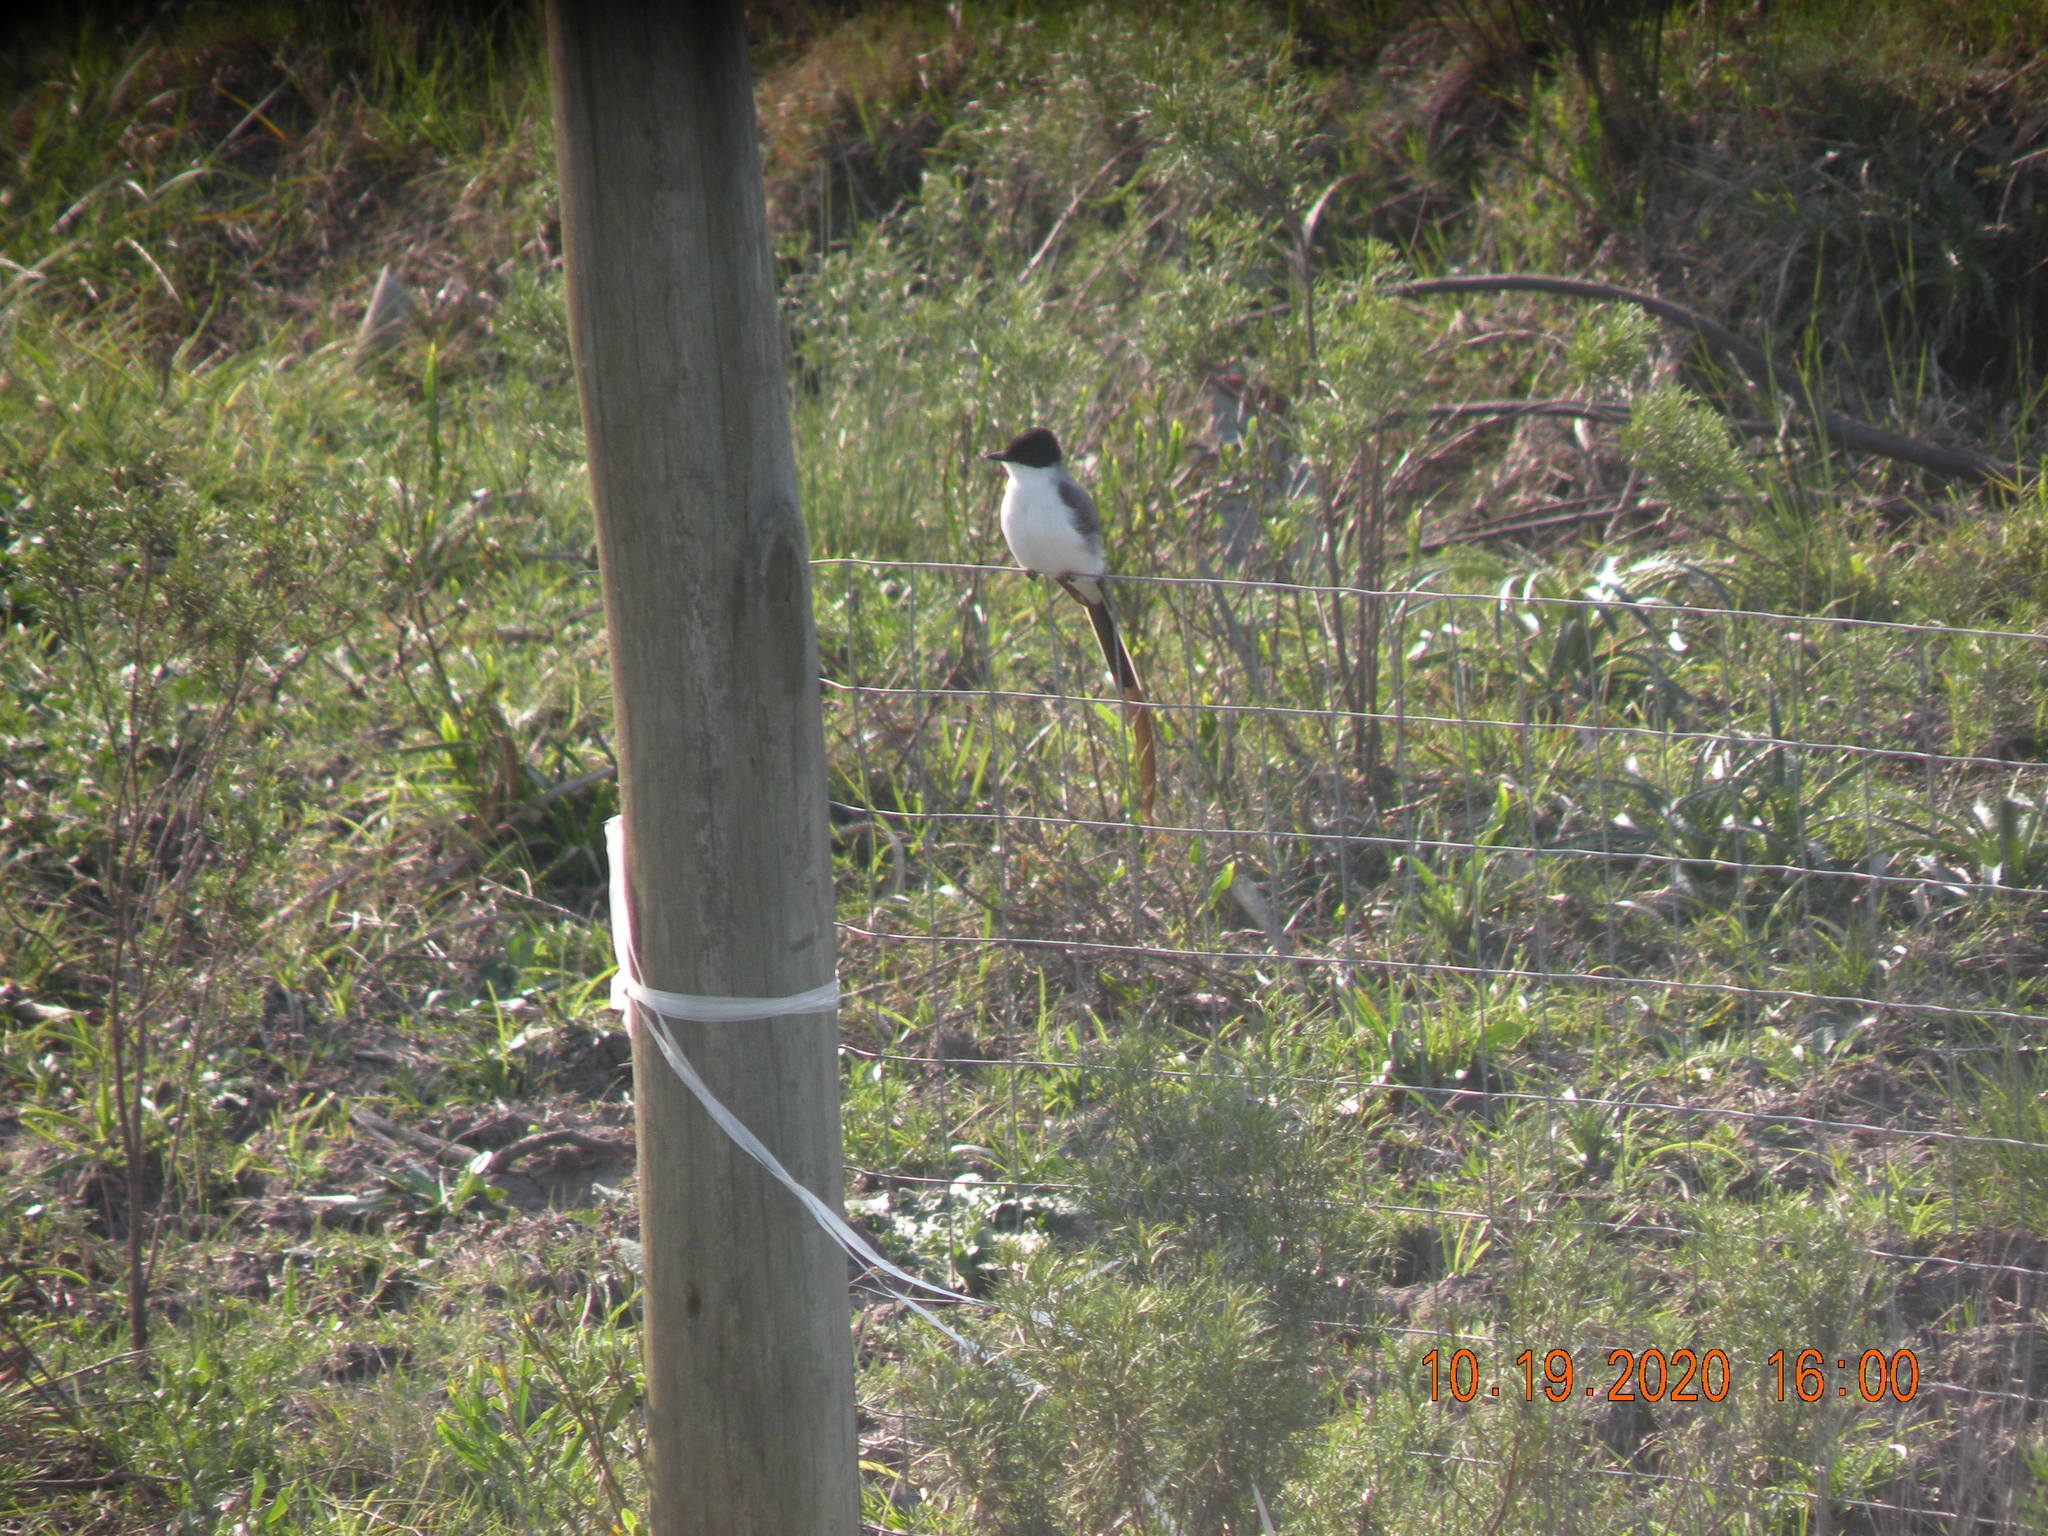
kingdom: Animalia
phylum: Chordata
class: Aves
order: Passeriformes
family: Tyrannidae
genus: Tyrannus
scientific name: Tyrannus savana
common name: Fork-tailed flycatcher
